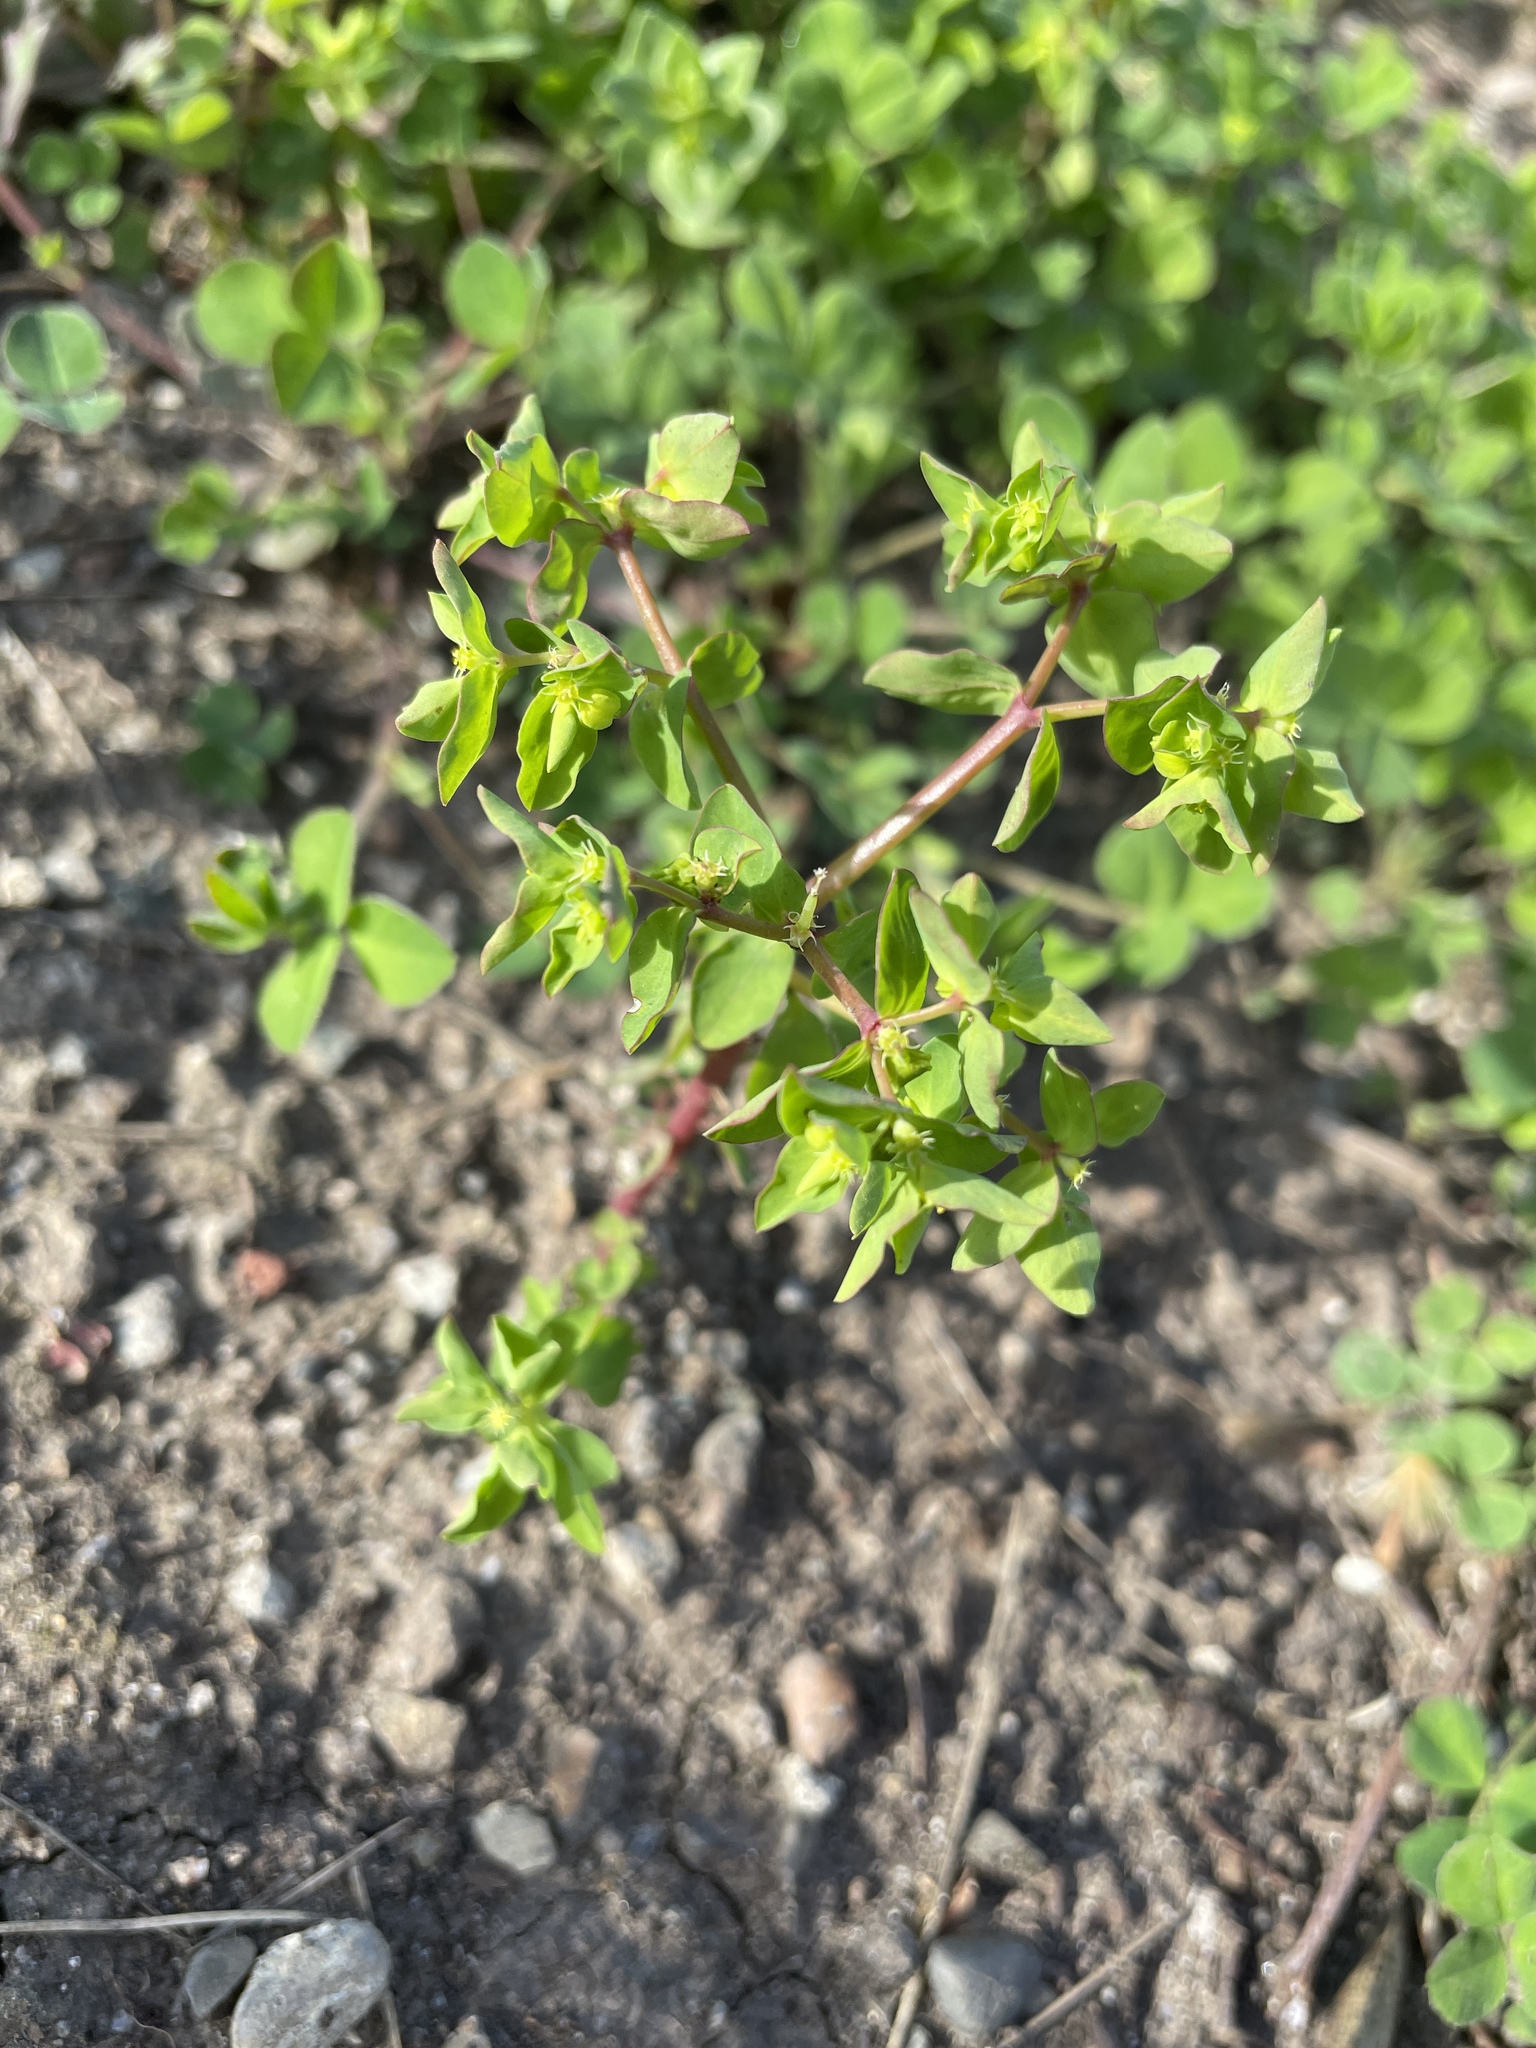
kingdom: Plantae
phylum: Tracheophyta
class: Magnoliopsida
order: Malpighiales
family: Euphorbiaceae
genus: Euphorbia
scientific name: Euphorbia peplus
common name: Petty spurge
